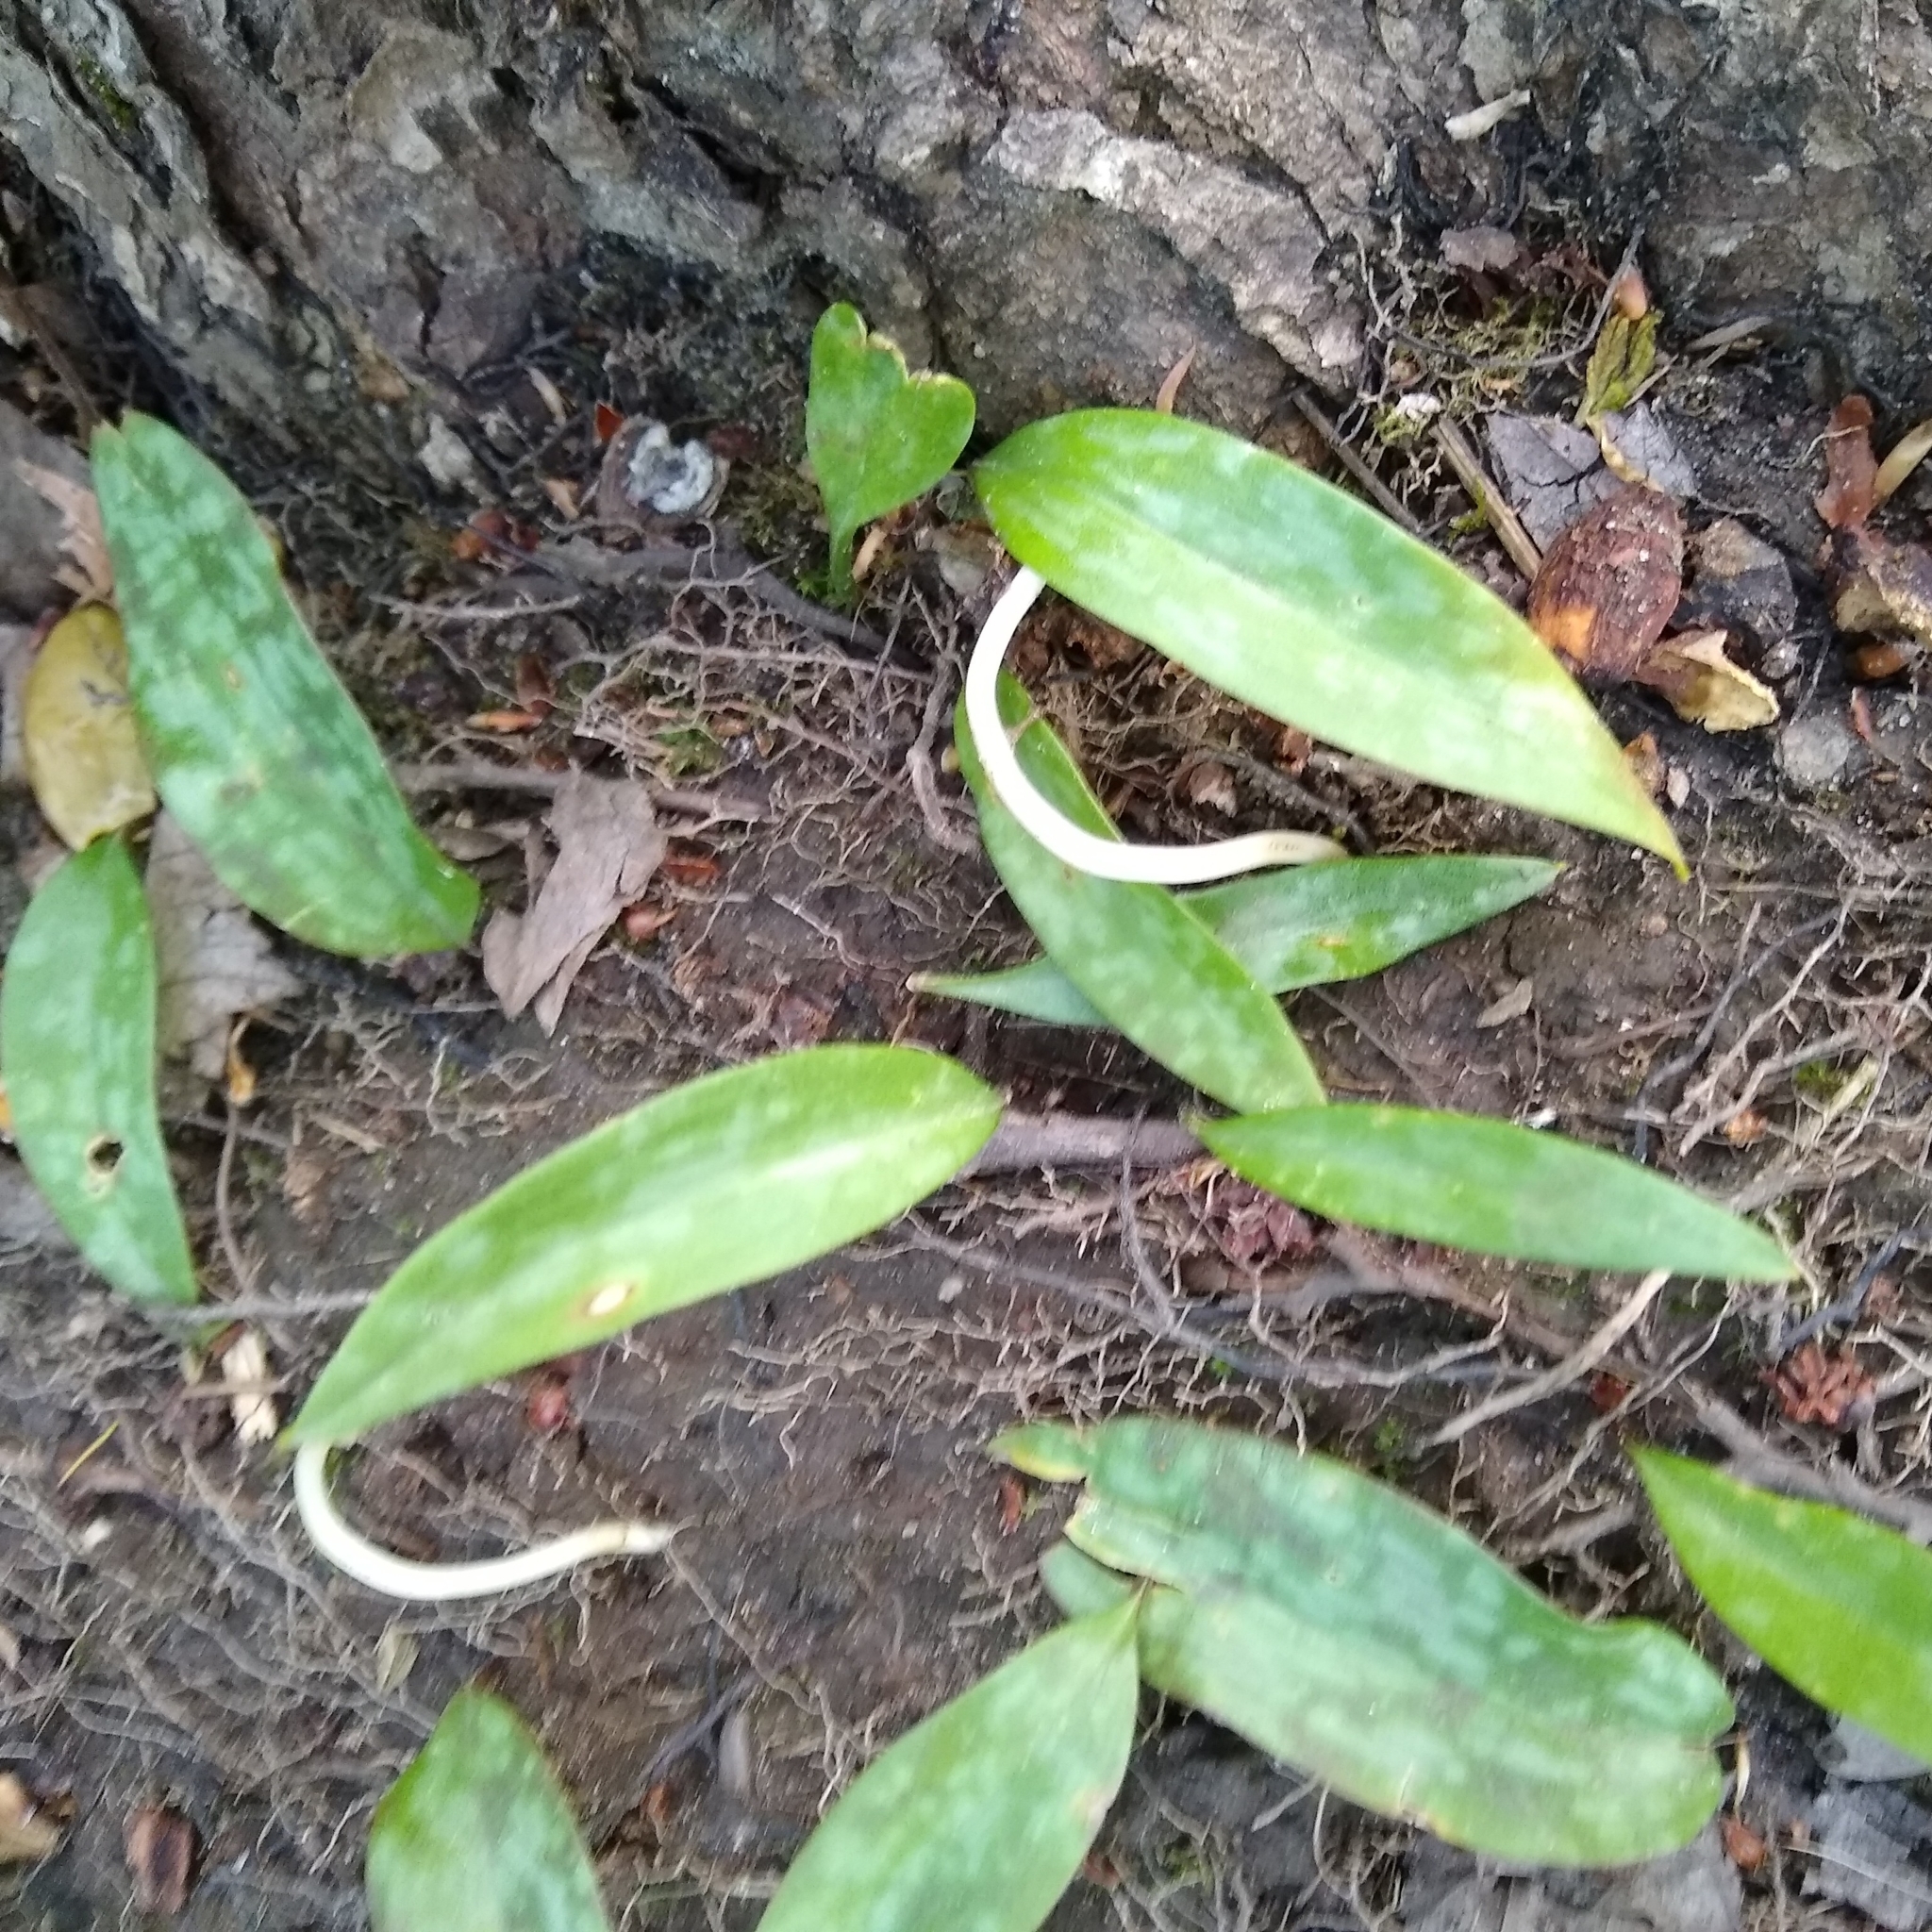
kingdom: Plantae
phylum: Tracheophyta
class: Liliopsida
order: Liliales
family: Liliaceae
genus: Erythronium
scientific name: Erythronium americanum
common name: Yellow adder's-tongue
